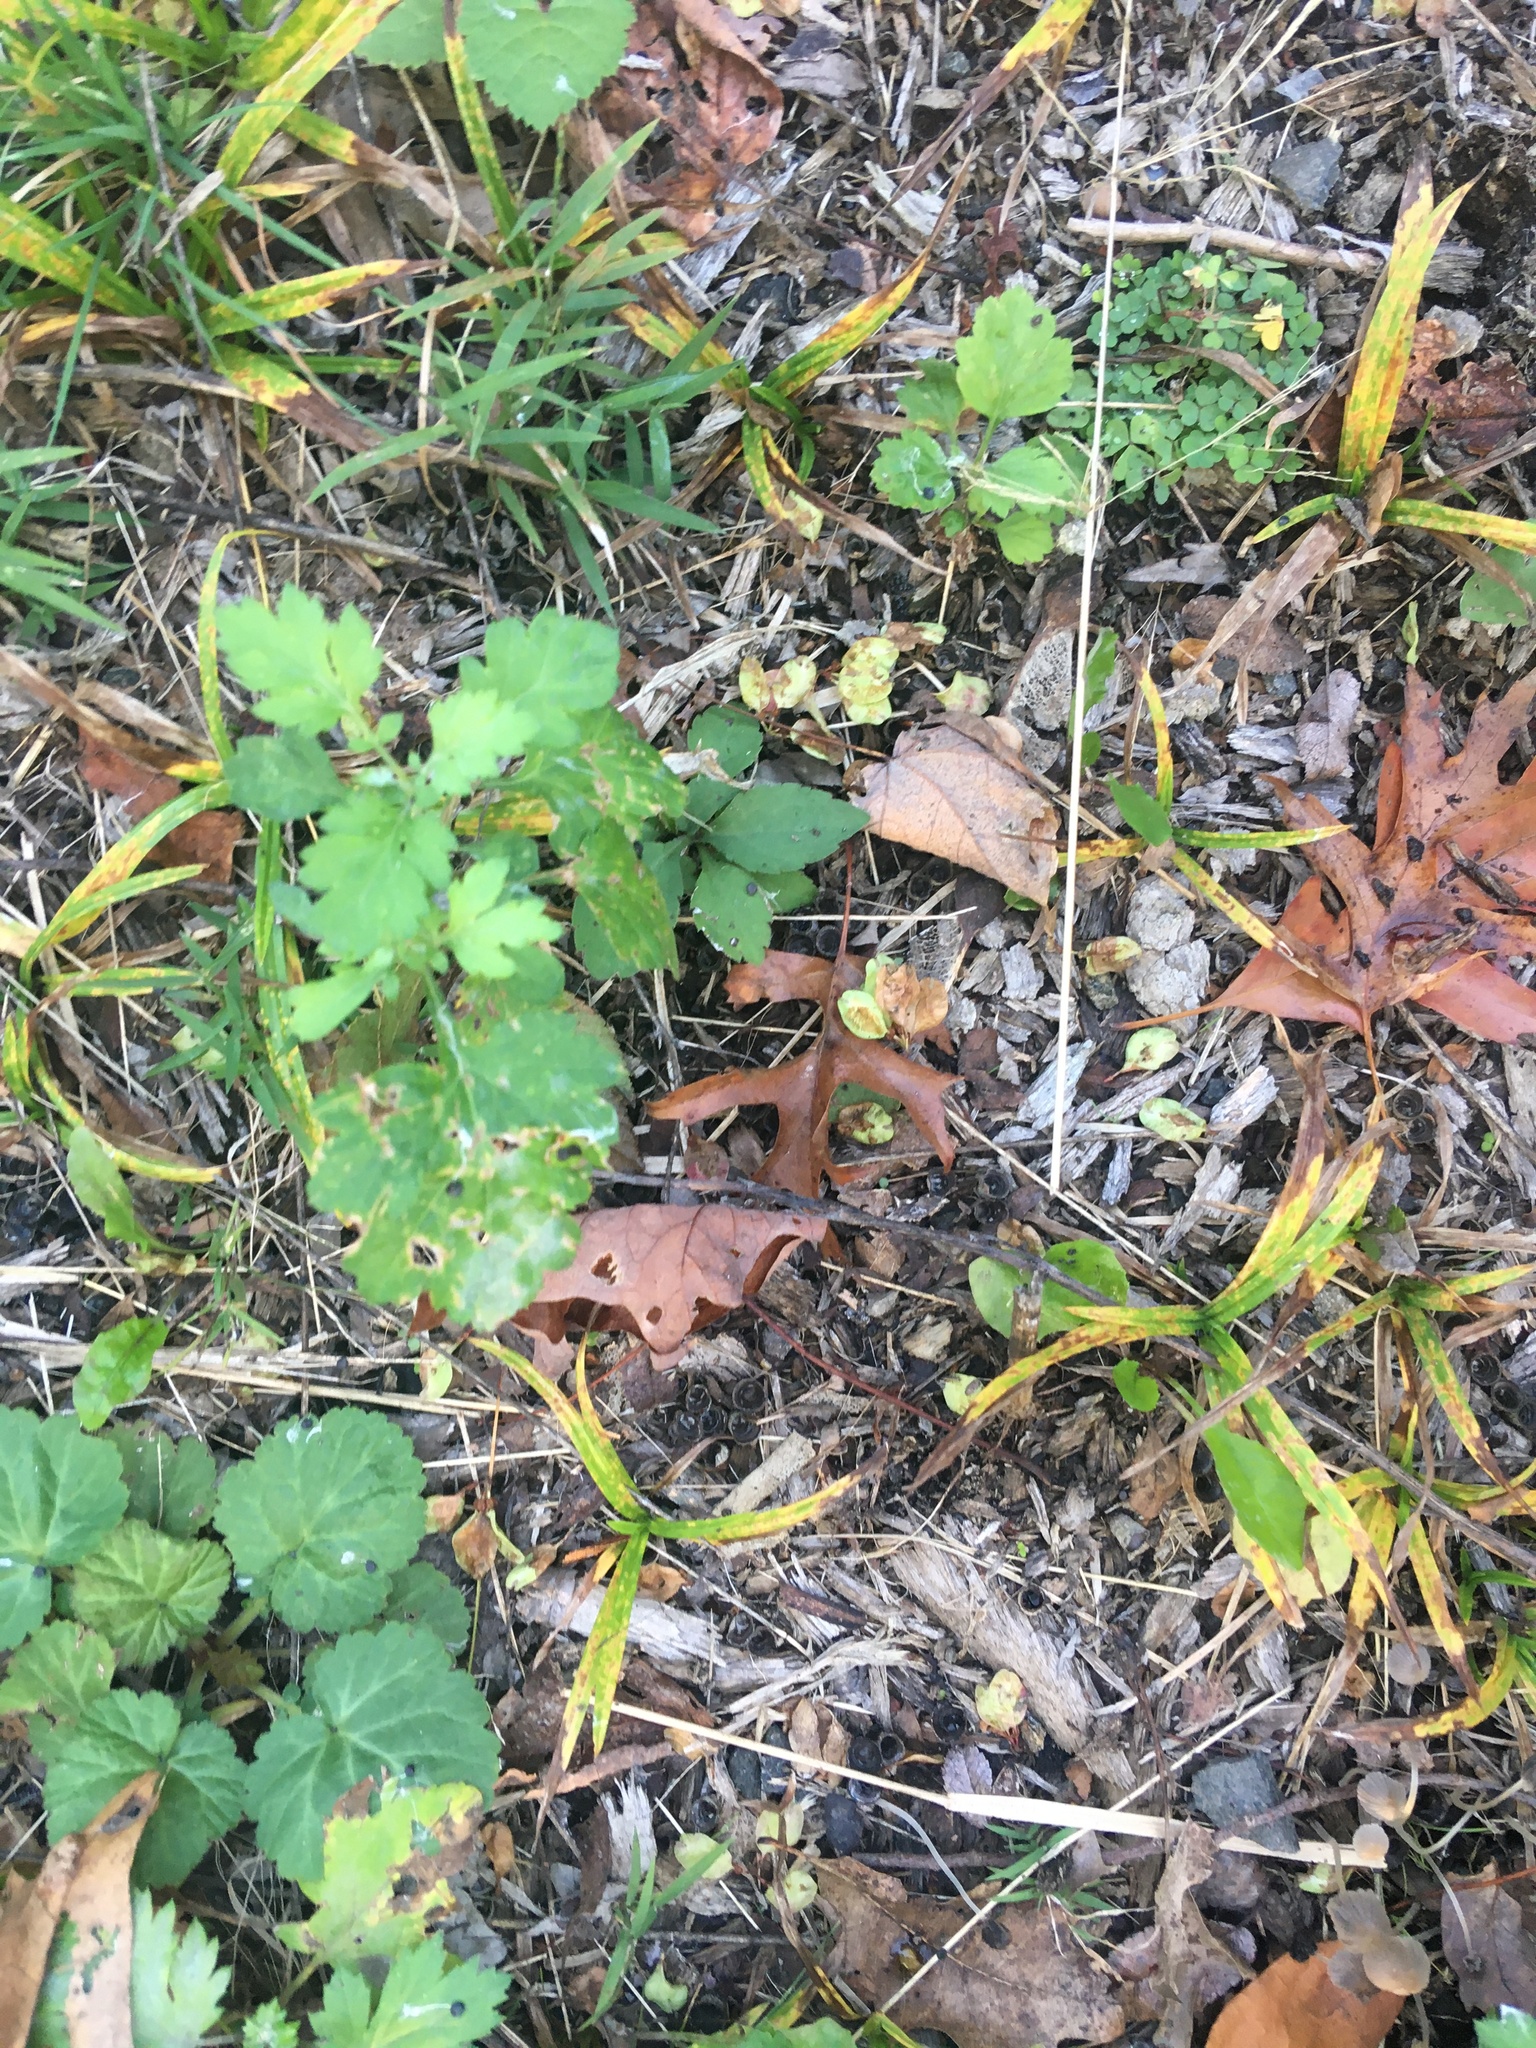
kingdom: Plantae
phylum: Tracheophyta
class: Magnoliopsida
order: Asterales
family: Asteraceae
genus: Artemisia
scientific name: Artemisia vulgaris
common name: Mugwort
